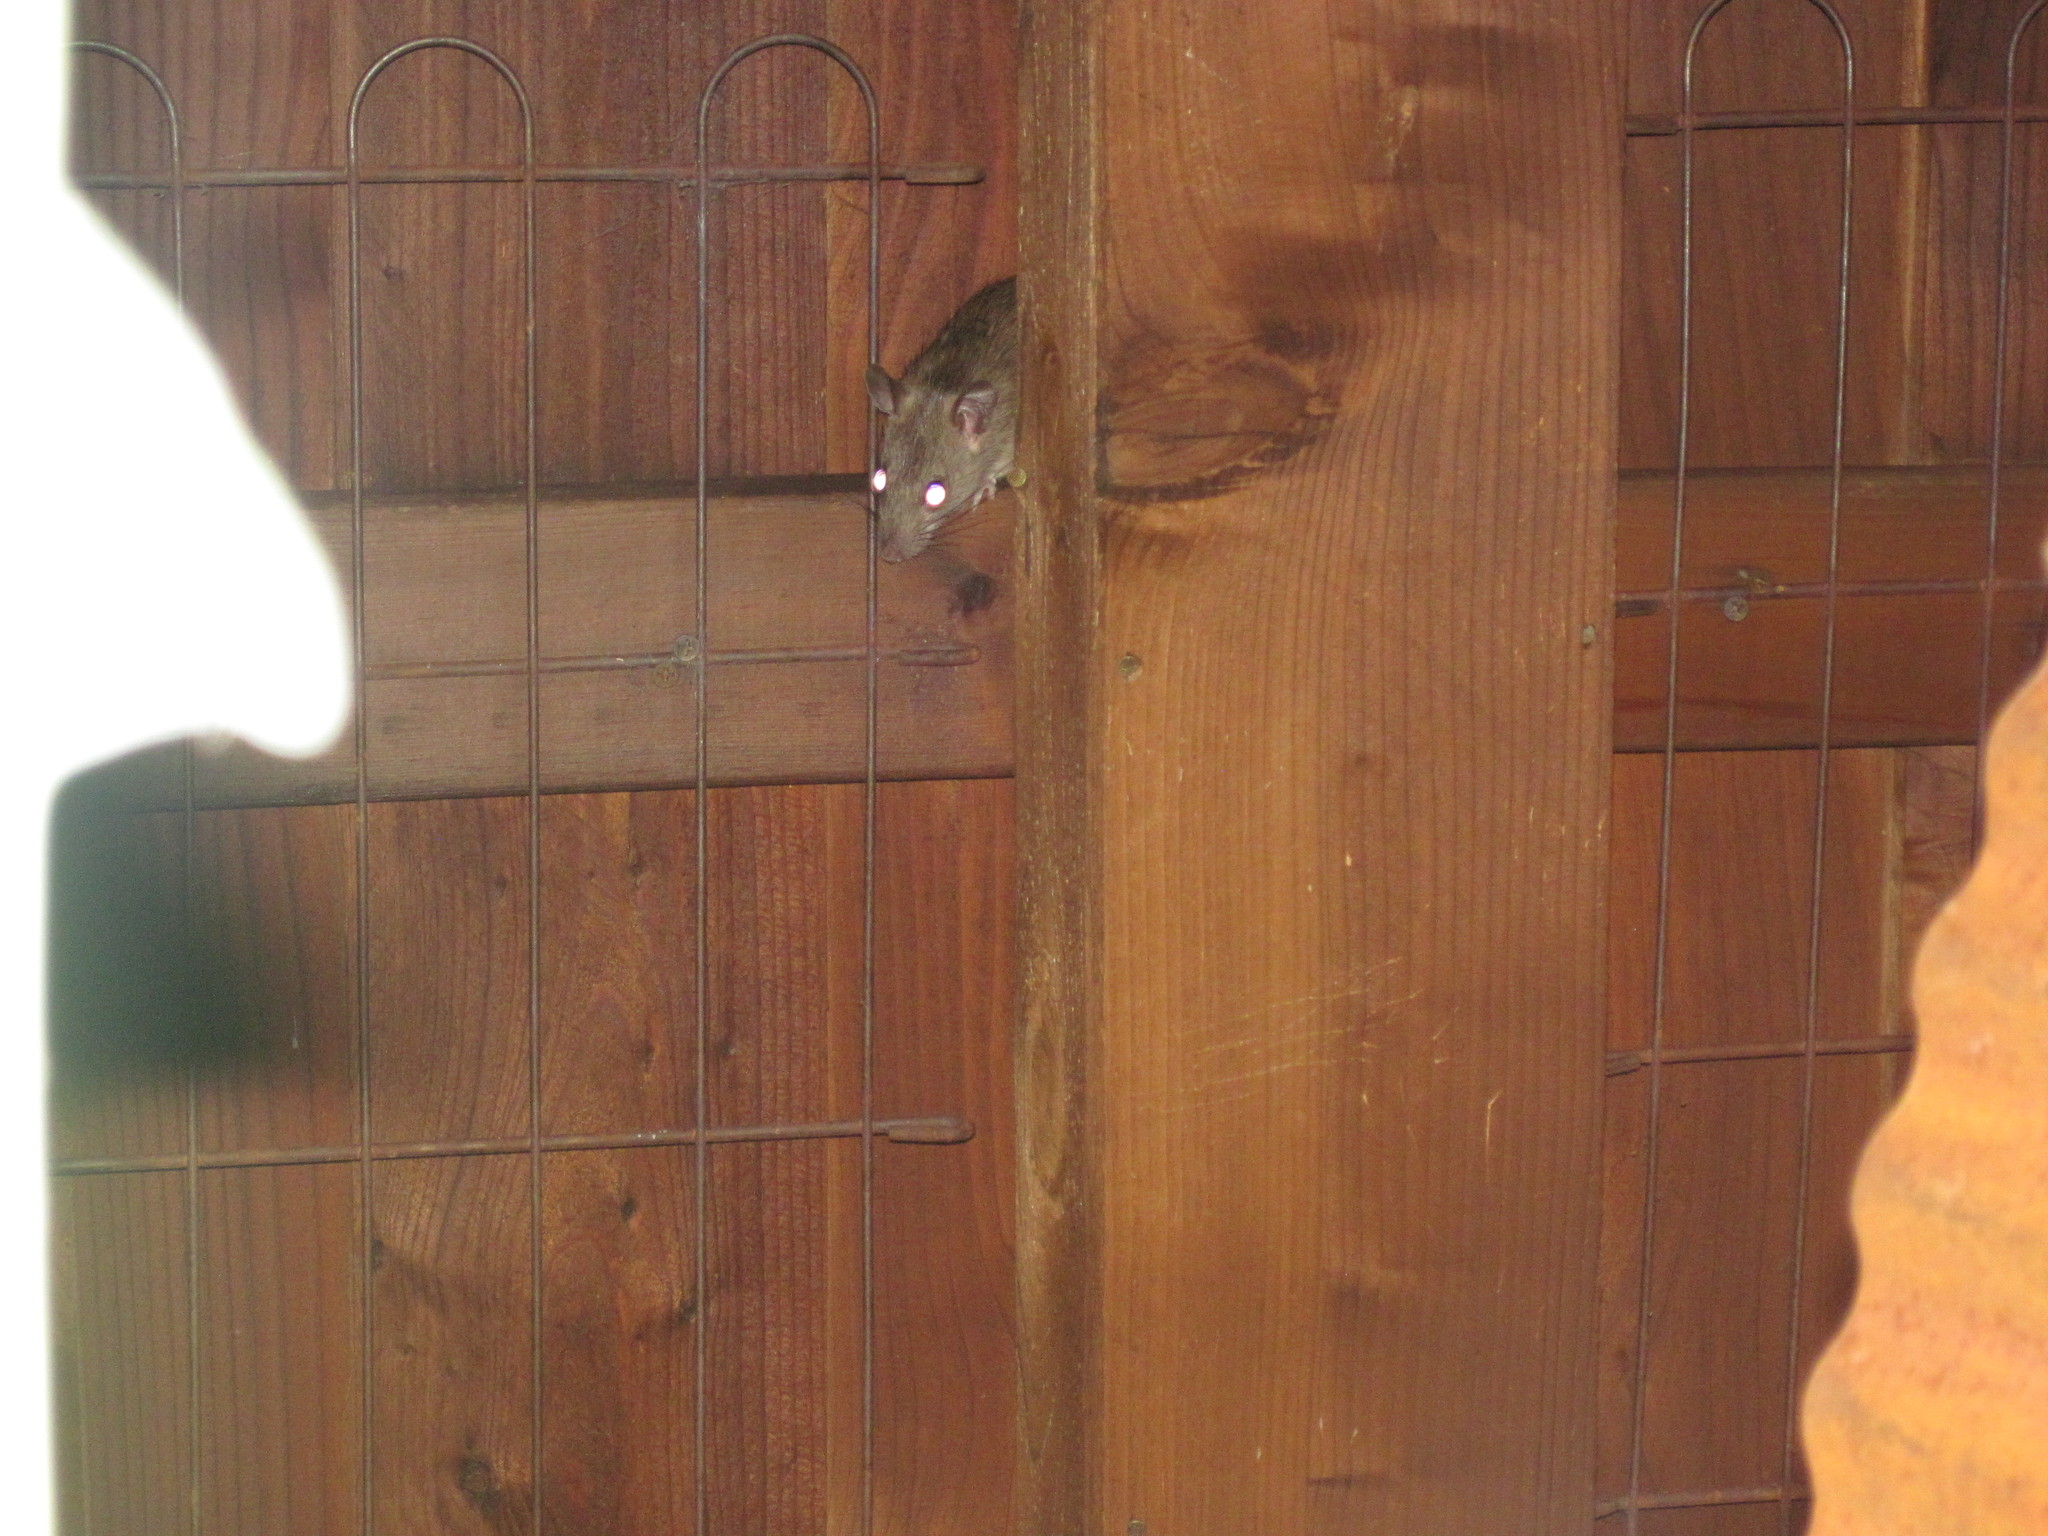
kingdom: Animalia
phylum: Chordata
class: Mammalia
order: Rodentia
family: Muridae
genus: Rattus
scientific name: Rattus norvegicus
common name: Brown rat
